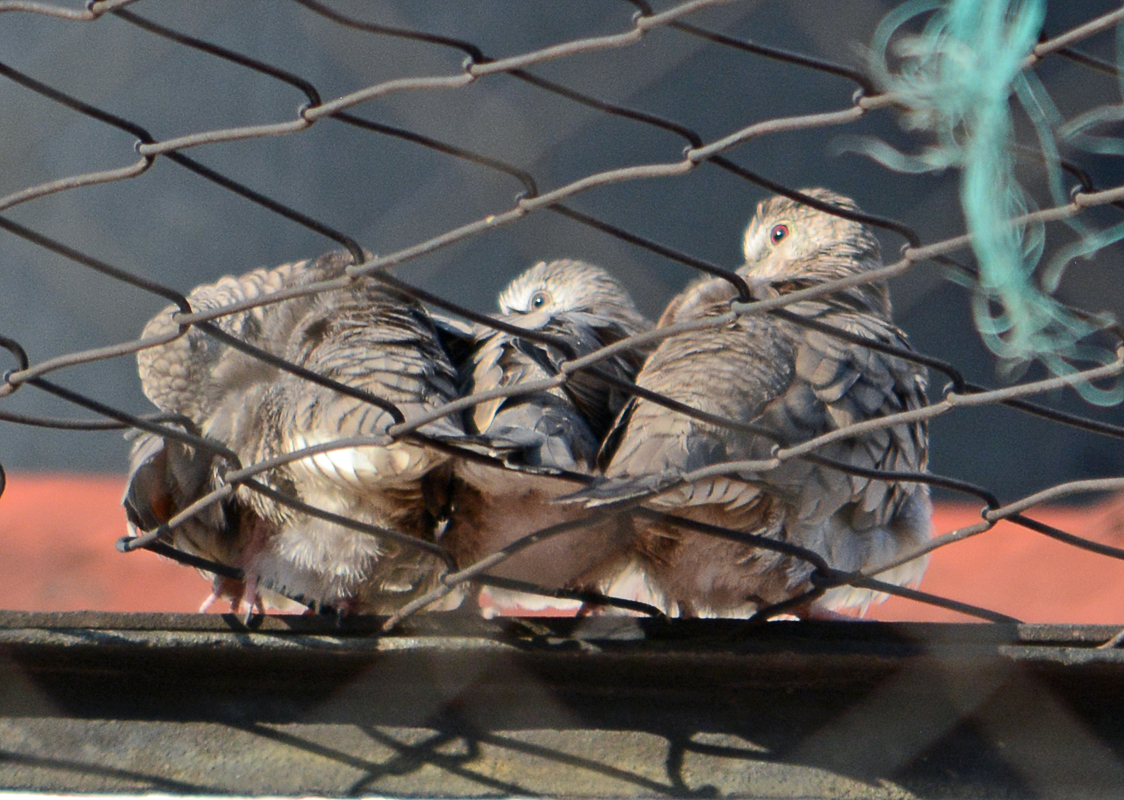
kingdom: Animalia
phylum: Chordata
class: Aves
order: Columbiformes
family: Columbidae
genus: Columbina
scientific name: Columbina inca
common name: Inca dove
